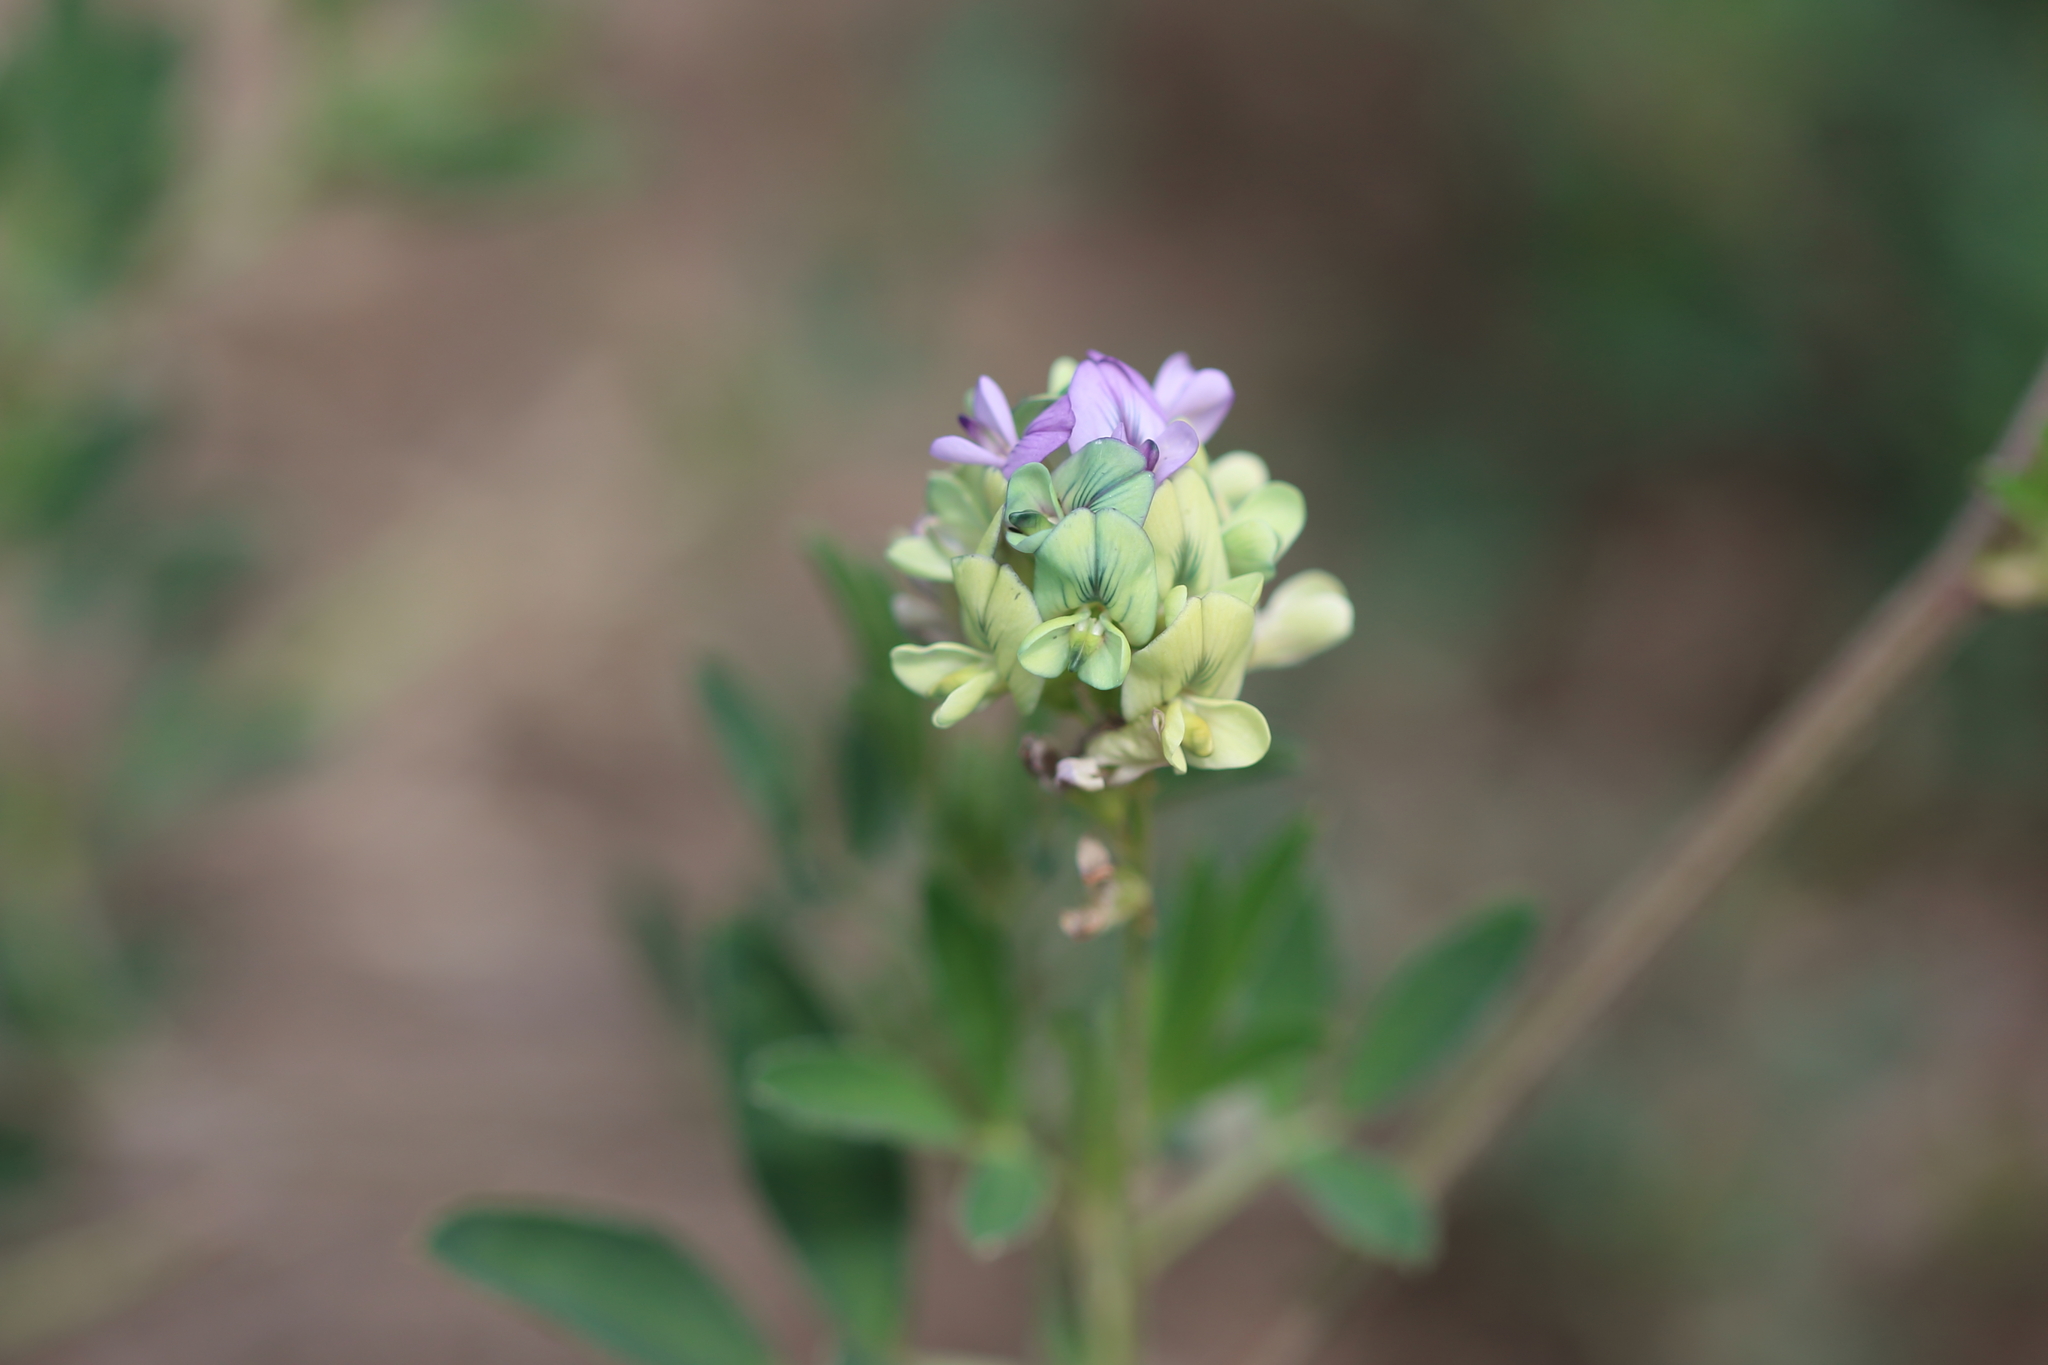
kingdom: Plantae
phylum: Tracheophyta
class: Magnoliopsida
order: Fabales
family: Fabaceae
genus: Medicago
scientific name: Medicago sativa
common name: Alfalfa
